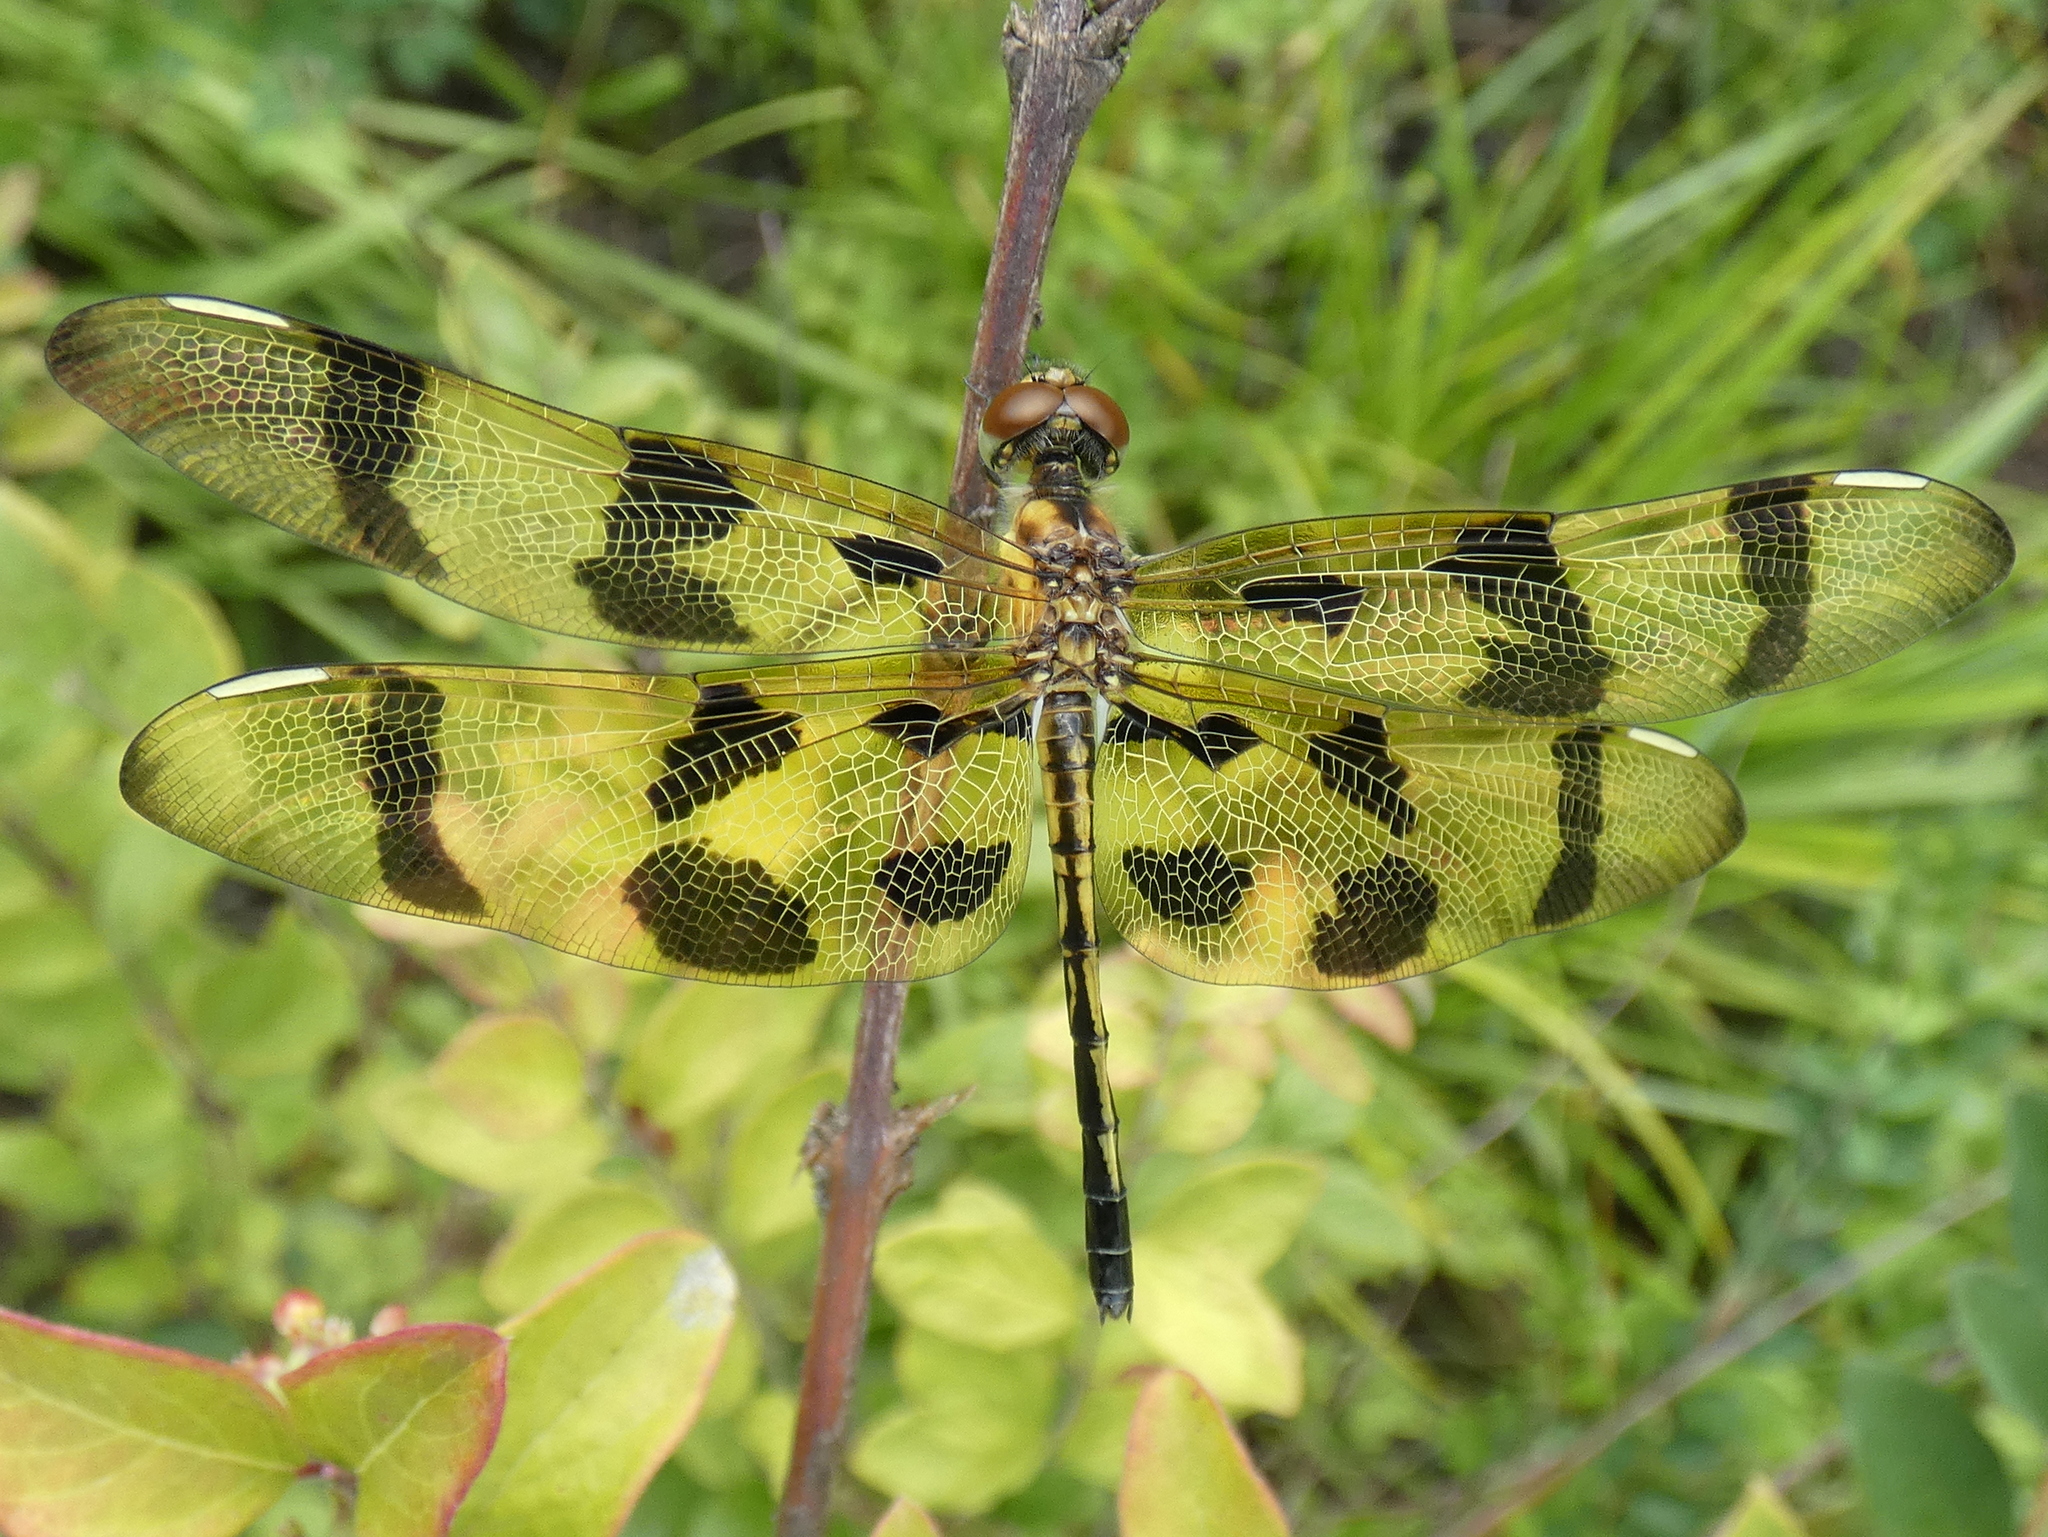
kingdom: Animalia
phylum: Arthropoda
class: Insecta
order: Odonata
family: Libellulidae
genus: Celithemis
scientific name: Celithemis eponina
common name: Halloween pennant
